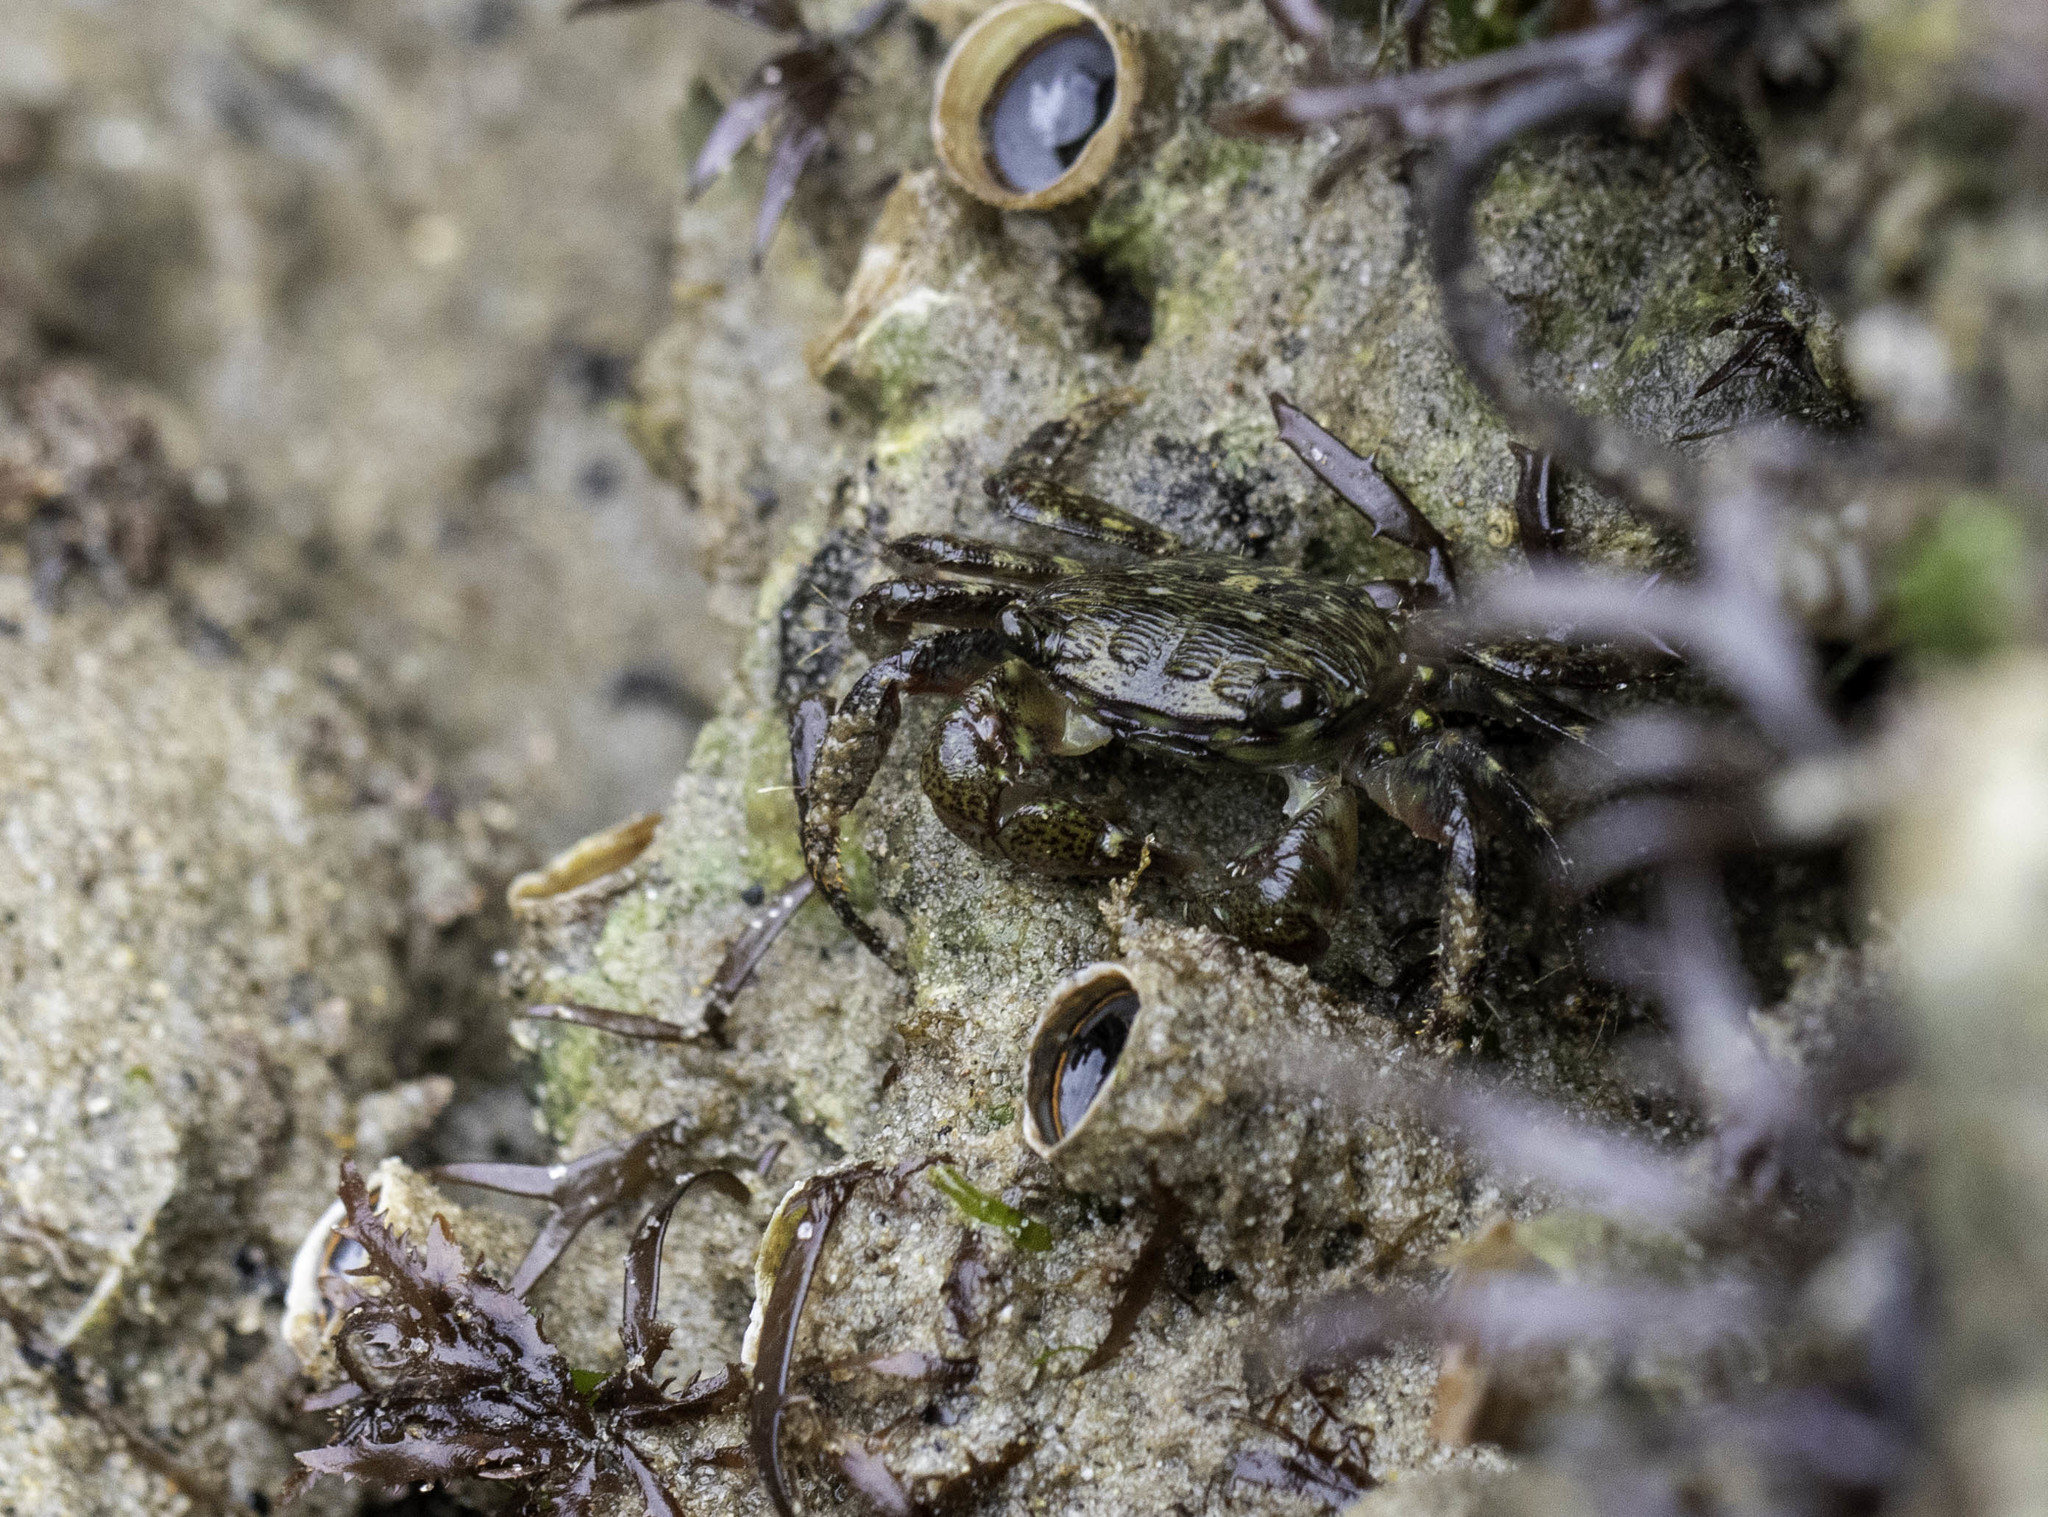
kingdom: Animalia
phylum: Arthropoda
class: Malacostraca
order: Decapoda
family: Grapsidae
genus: Pachygrapsus
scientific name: Pachygrapsus crassipes
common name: Striped shore crab
